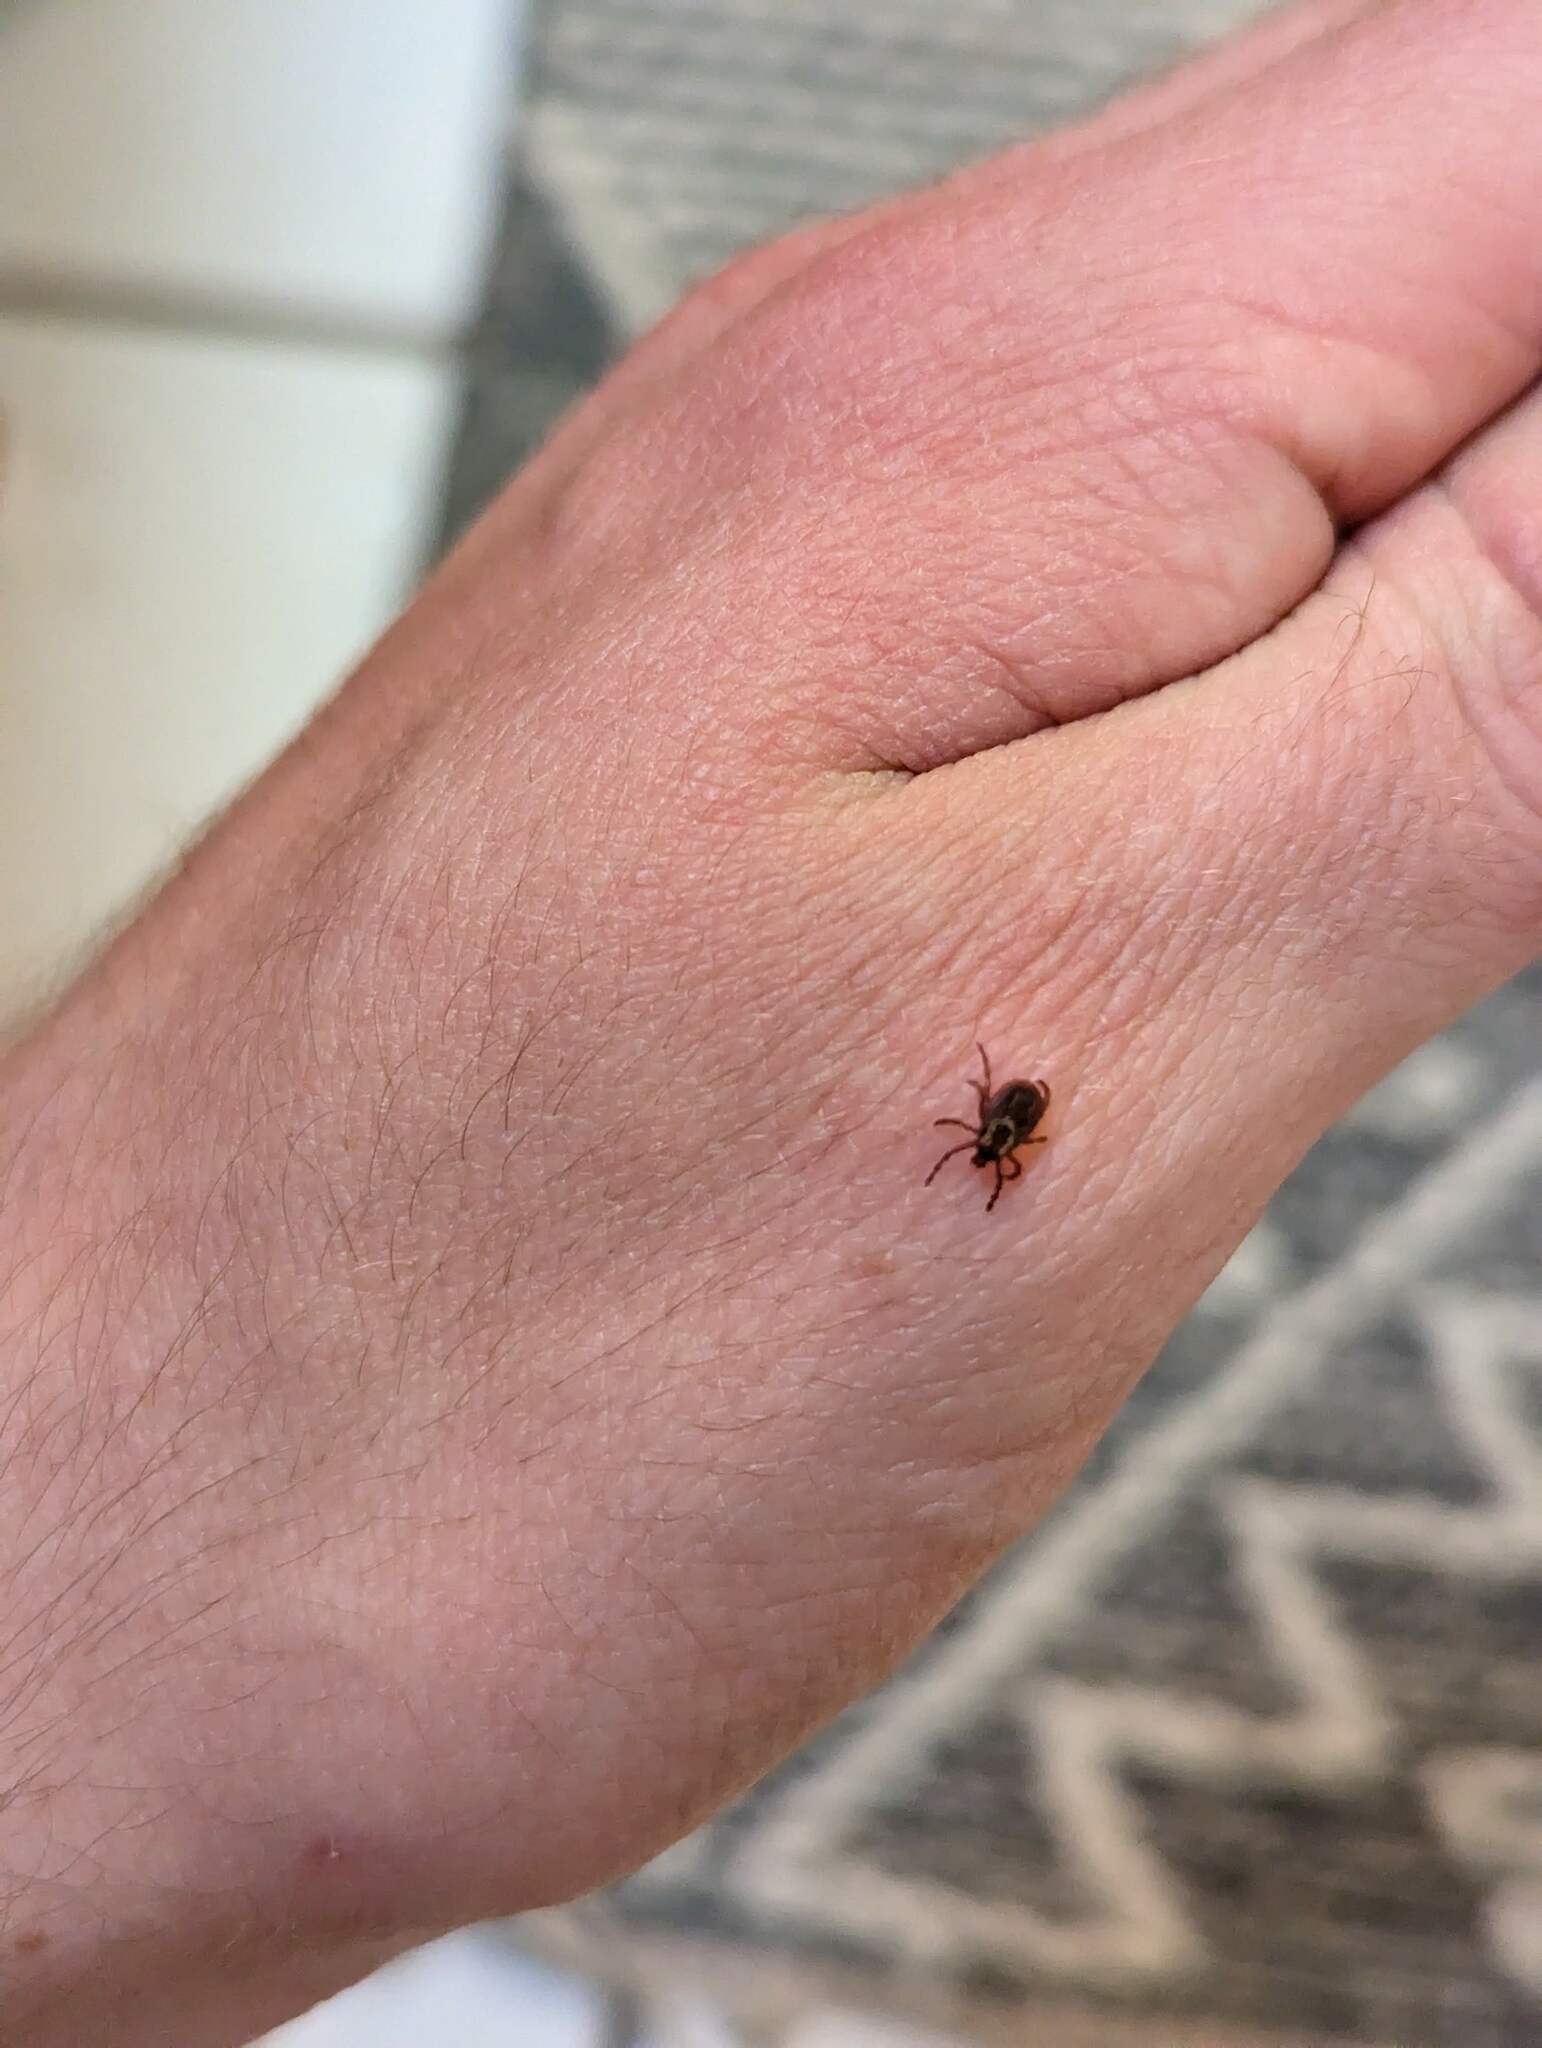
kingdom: Animalia
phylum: Arthropoda
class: Arachnida
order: Ixodida
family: Ixodidae
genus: Dermacentor
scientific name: Dermacentor variabilis
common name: American dog tick
